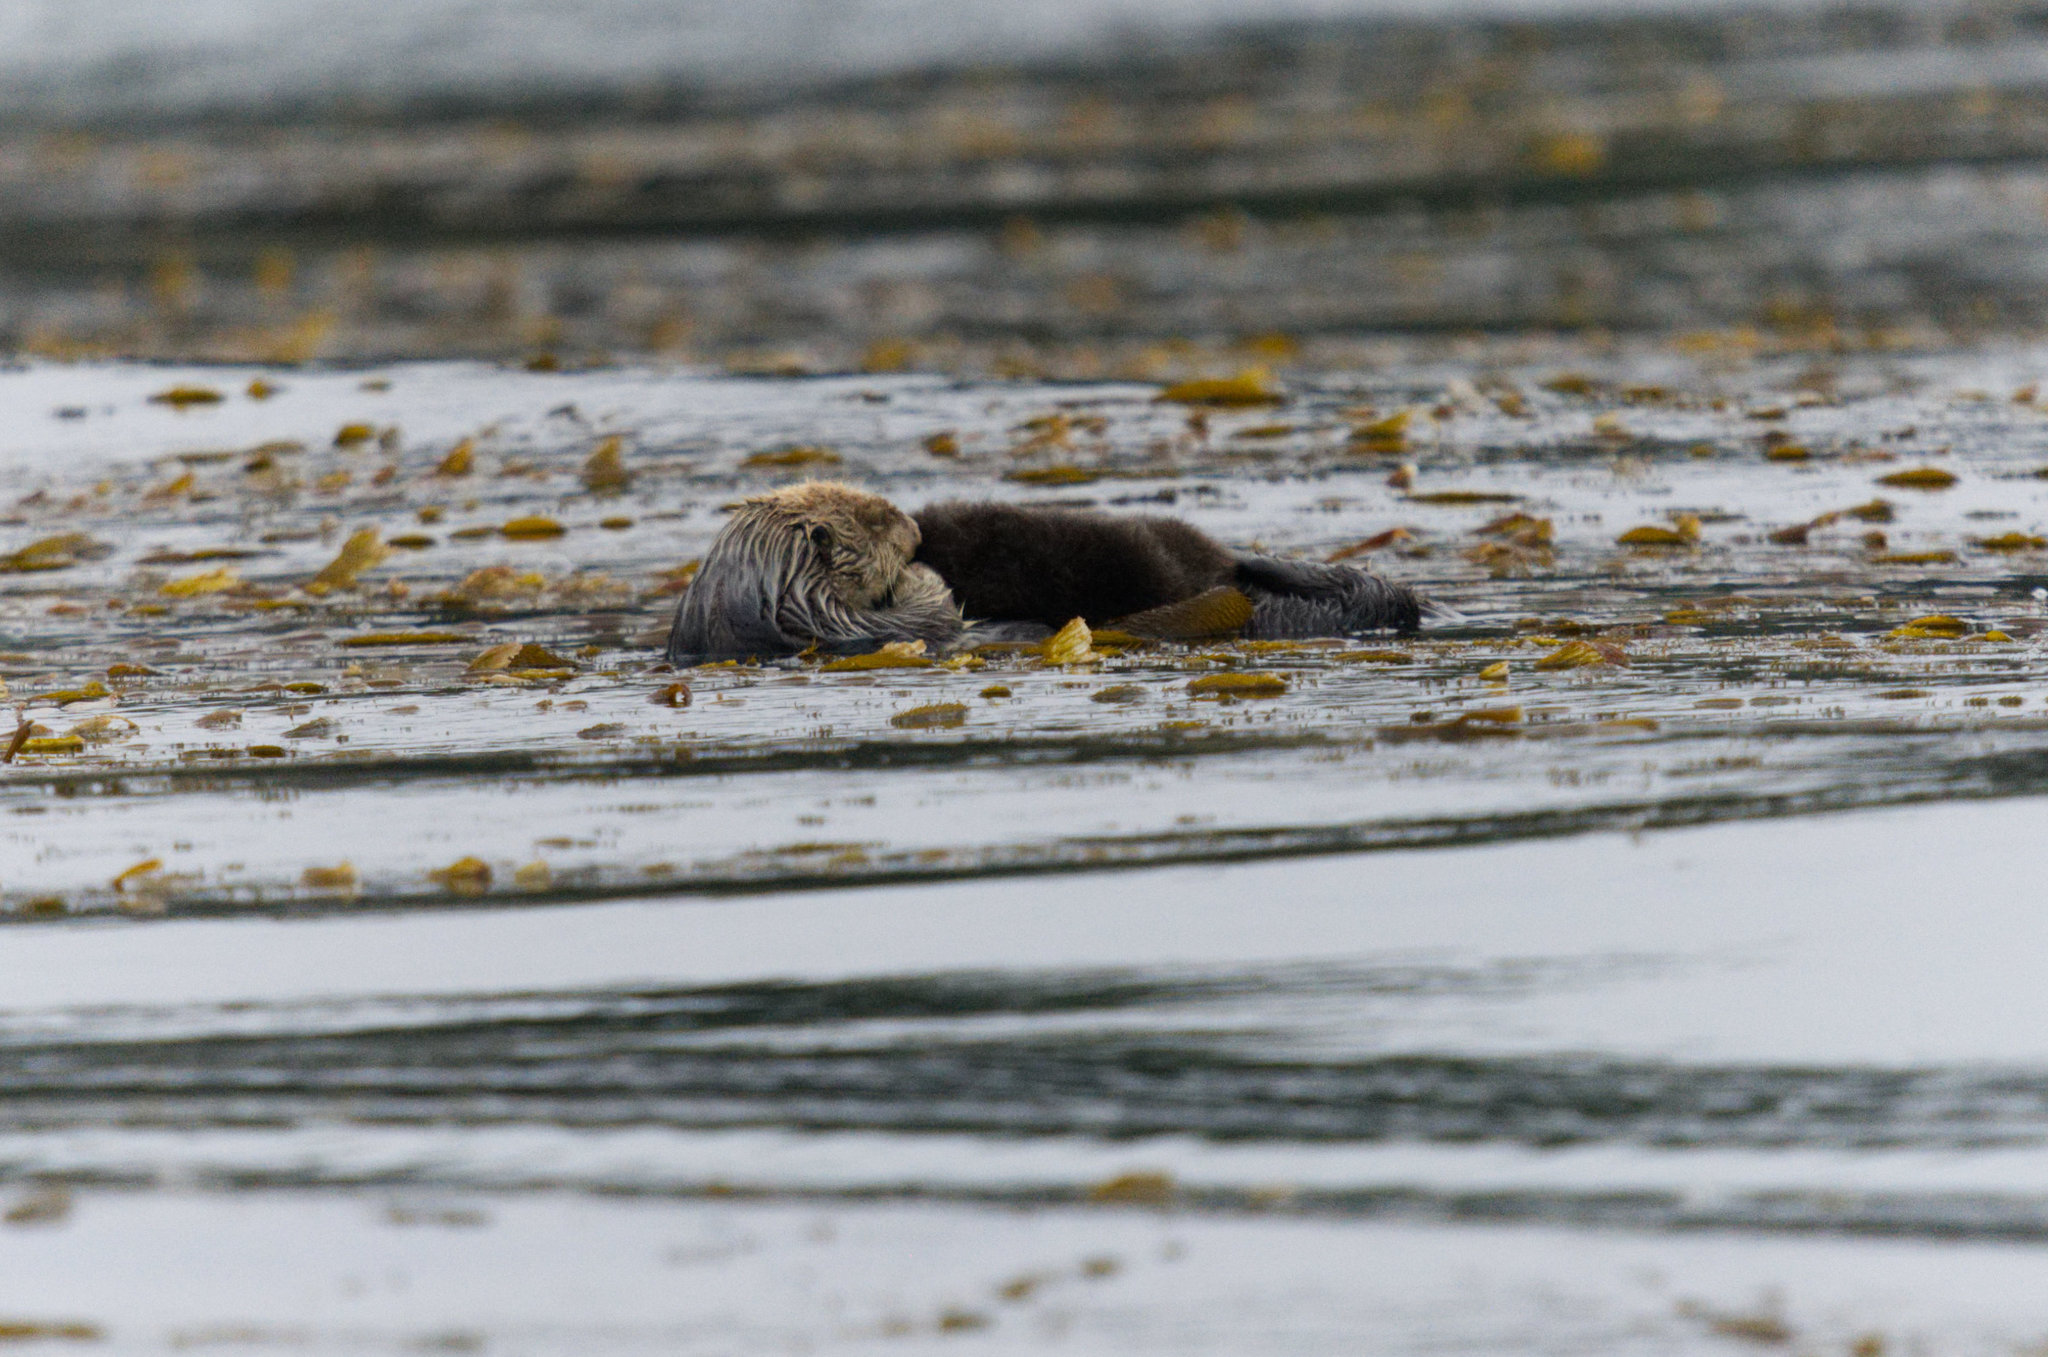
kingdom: Animalia
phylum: Chordata
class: Mammalia
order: Carnivora
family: Mustelidae
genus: Enhydra
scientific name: Enhydra lutris
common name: Sea otter
